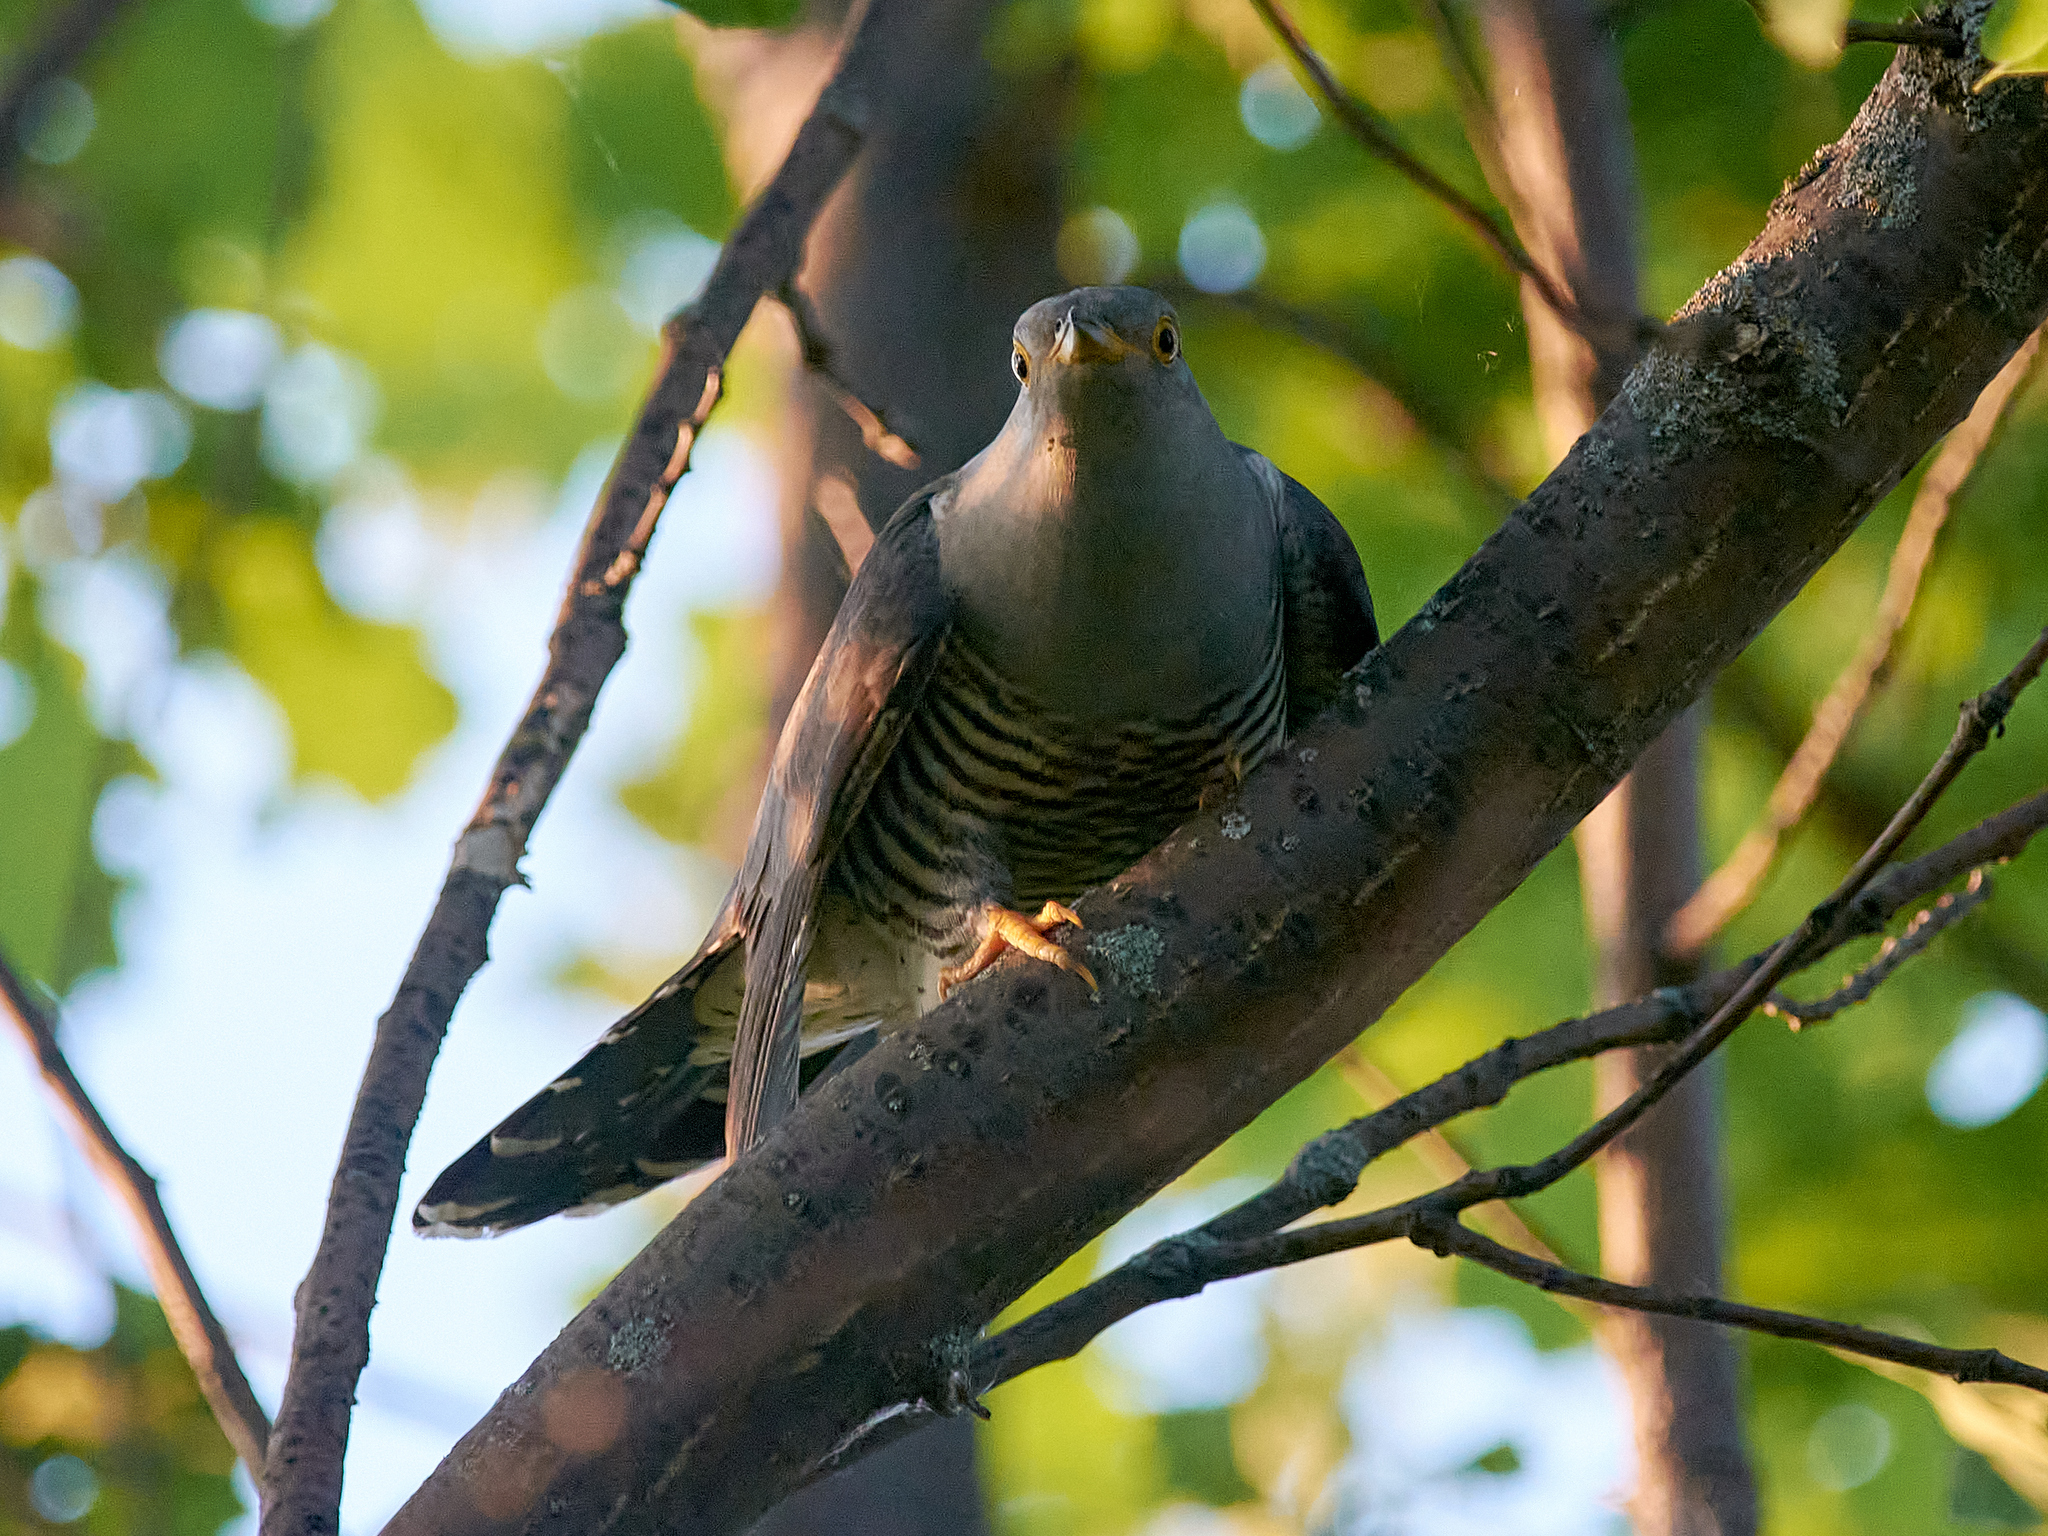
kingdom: Animalia
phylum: Chordata
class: Aves
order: Cuculiformes
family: Cuculidae
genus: Cuculus
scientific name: Cuculus canorus
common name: Common cuckoo
